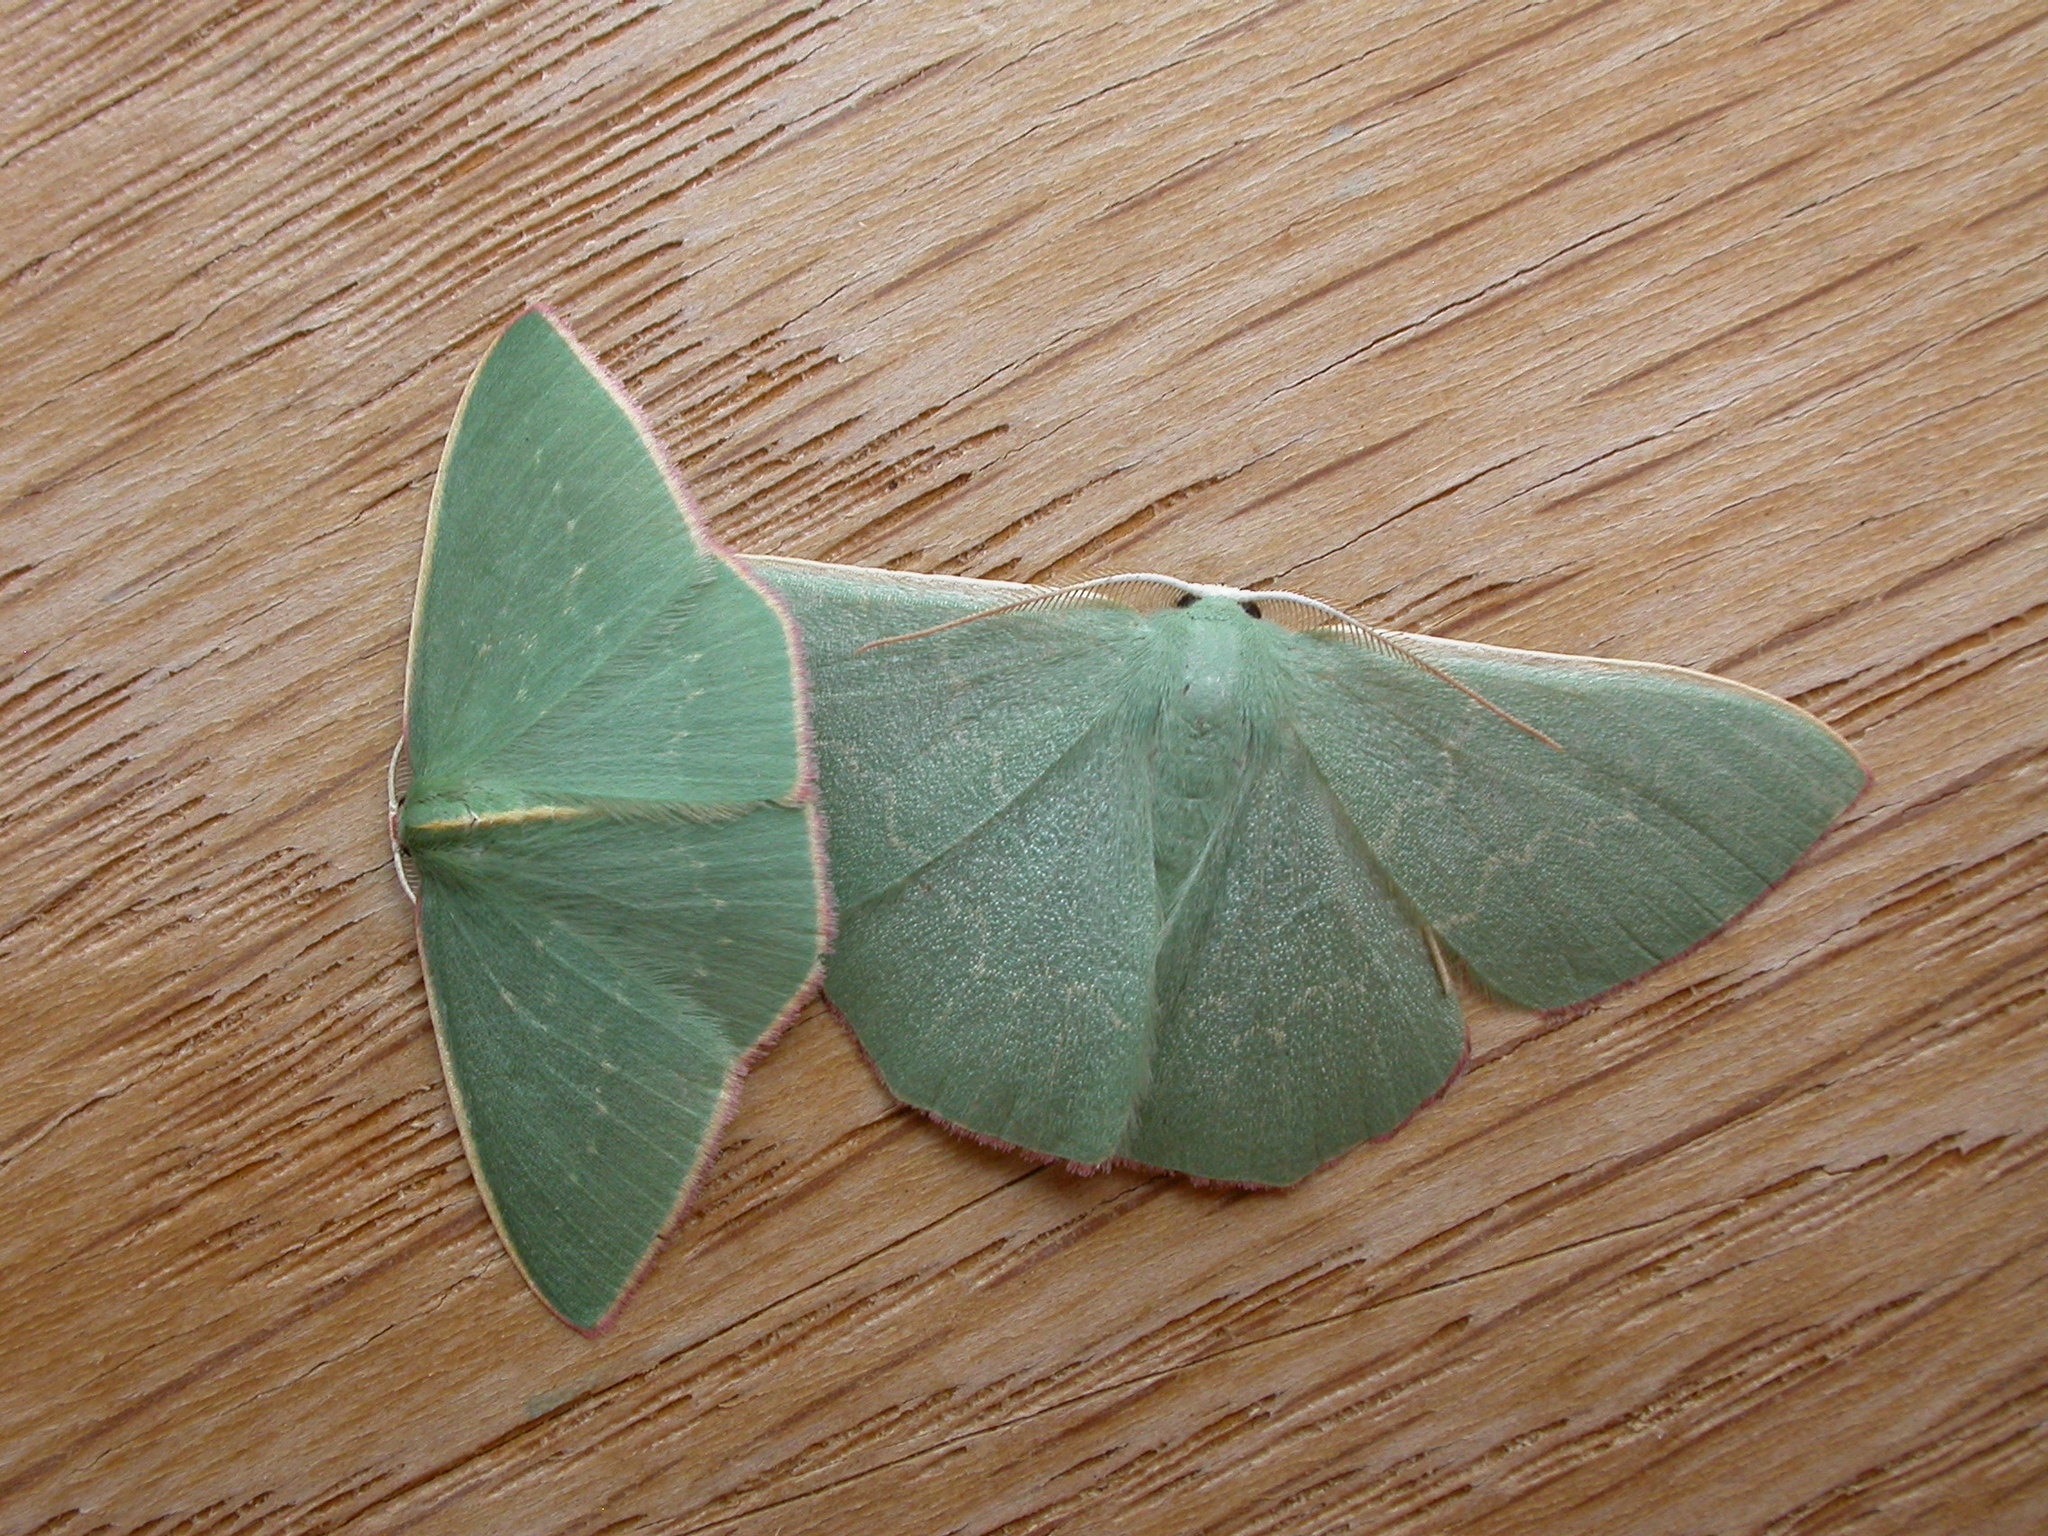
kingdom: Animalia
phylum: Arthropoda
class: Insecta
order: Lepidoptera
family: Geometridae
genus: Prasinocyma
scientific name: Prasinocyma semicrocea
